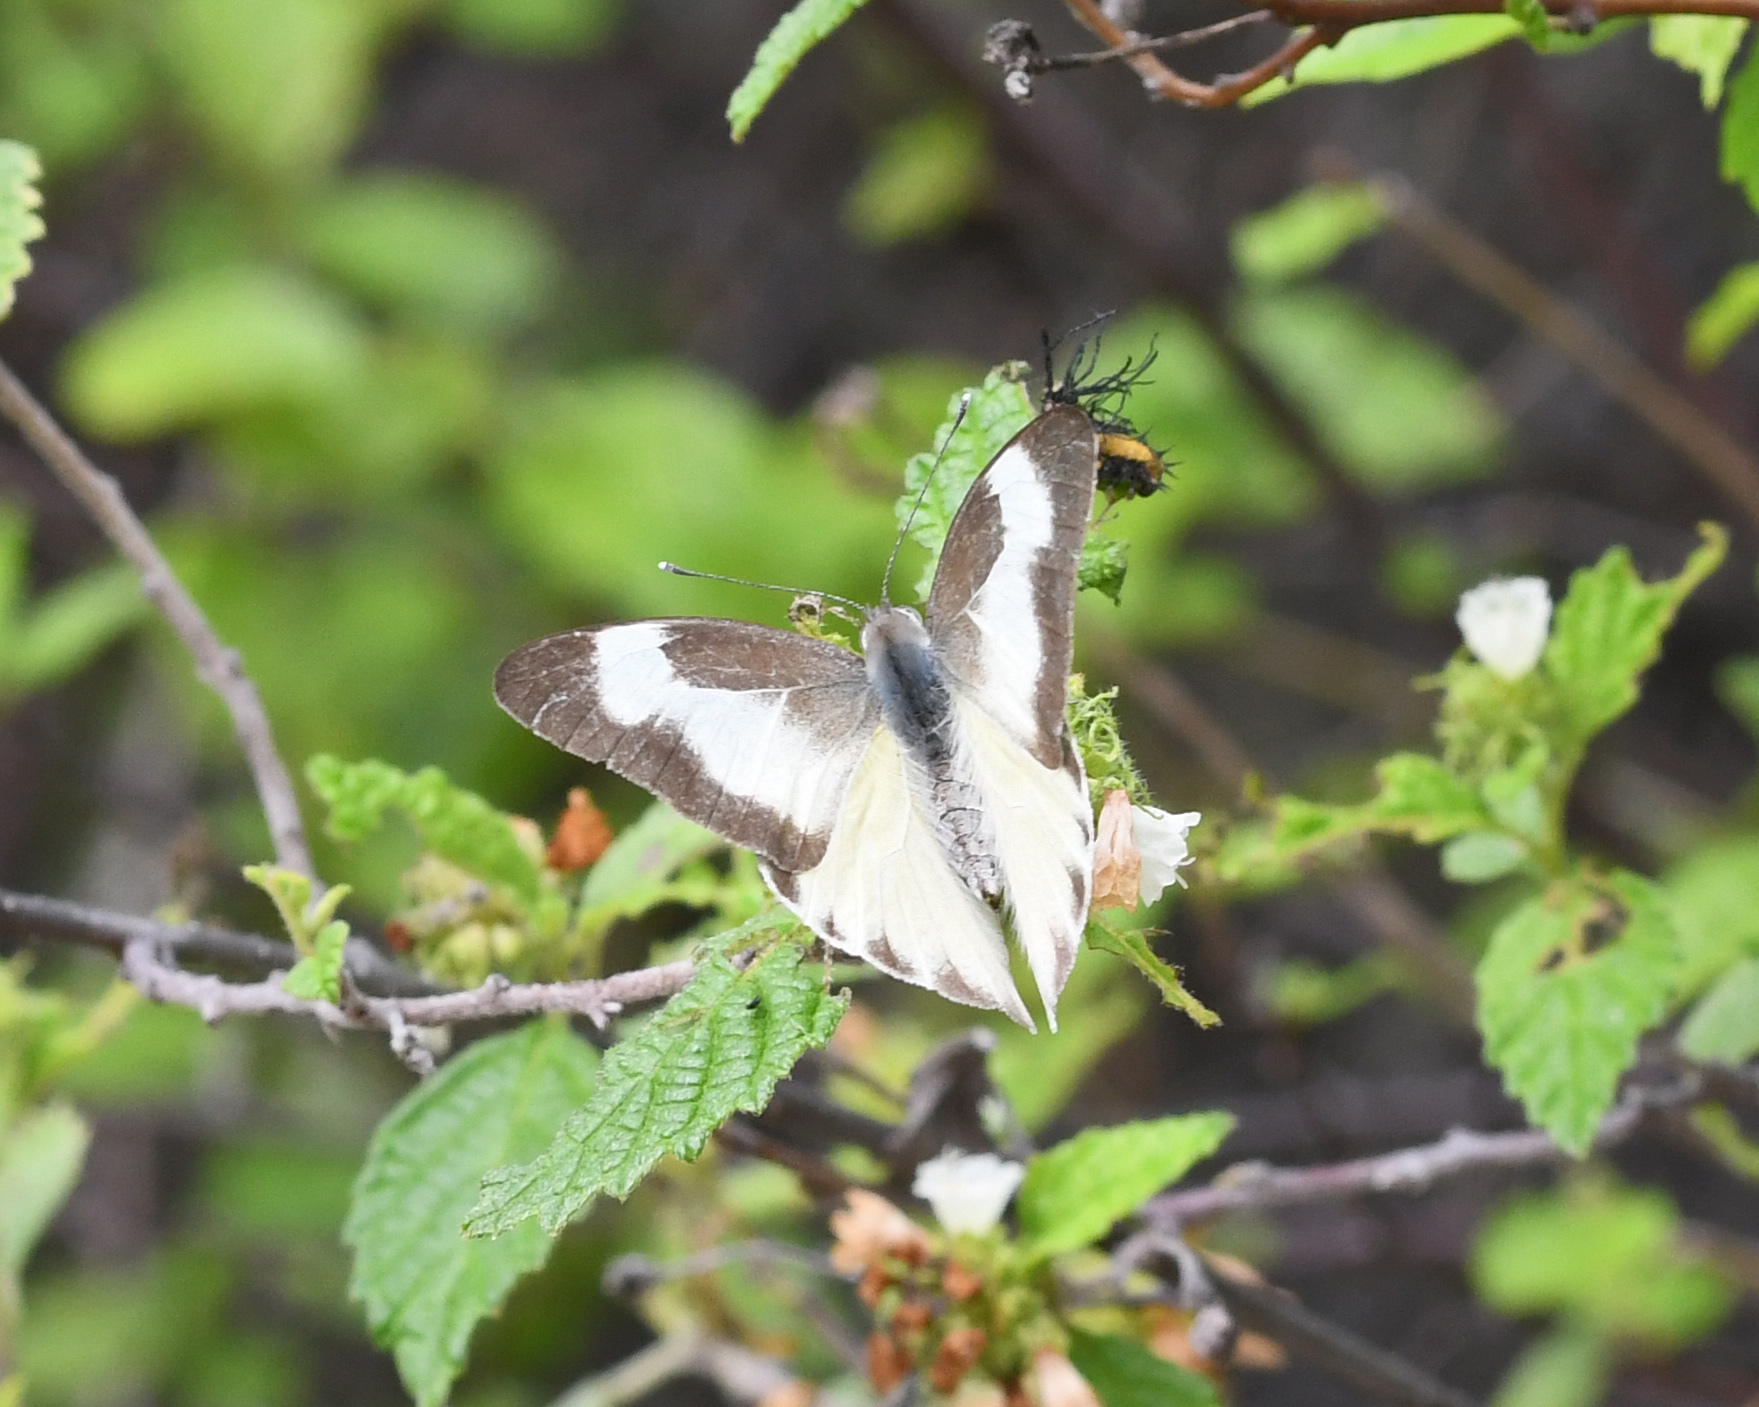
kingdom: Animalia
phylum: Arthropoda
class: Insecta
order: Lepidoptera
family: Pieridae
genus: Glutophrissa
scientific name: Glutophrissa drusilla
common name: Florida white
